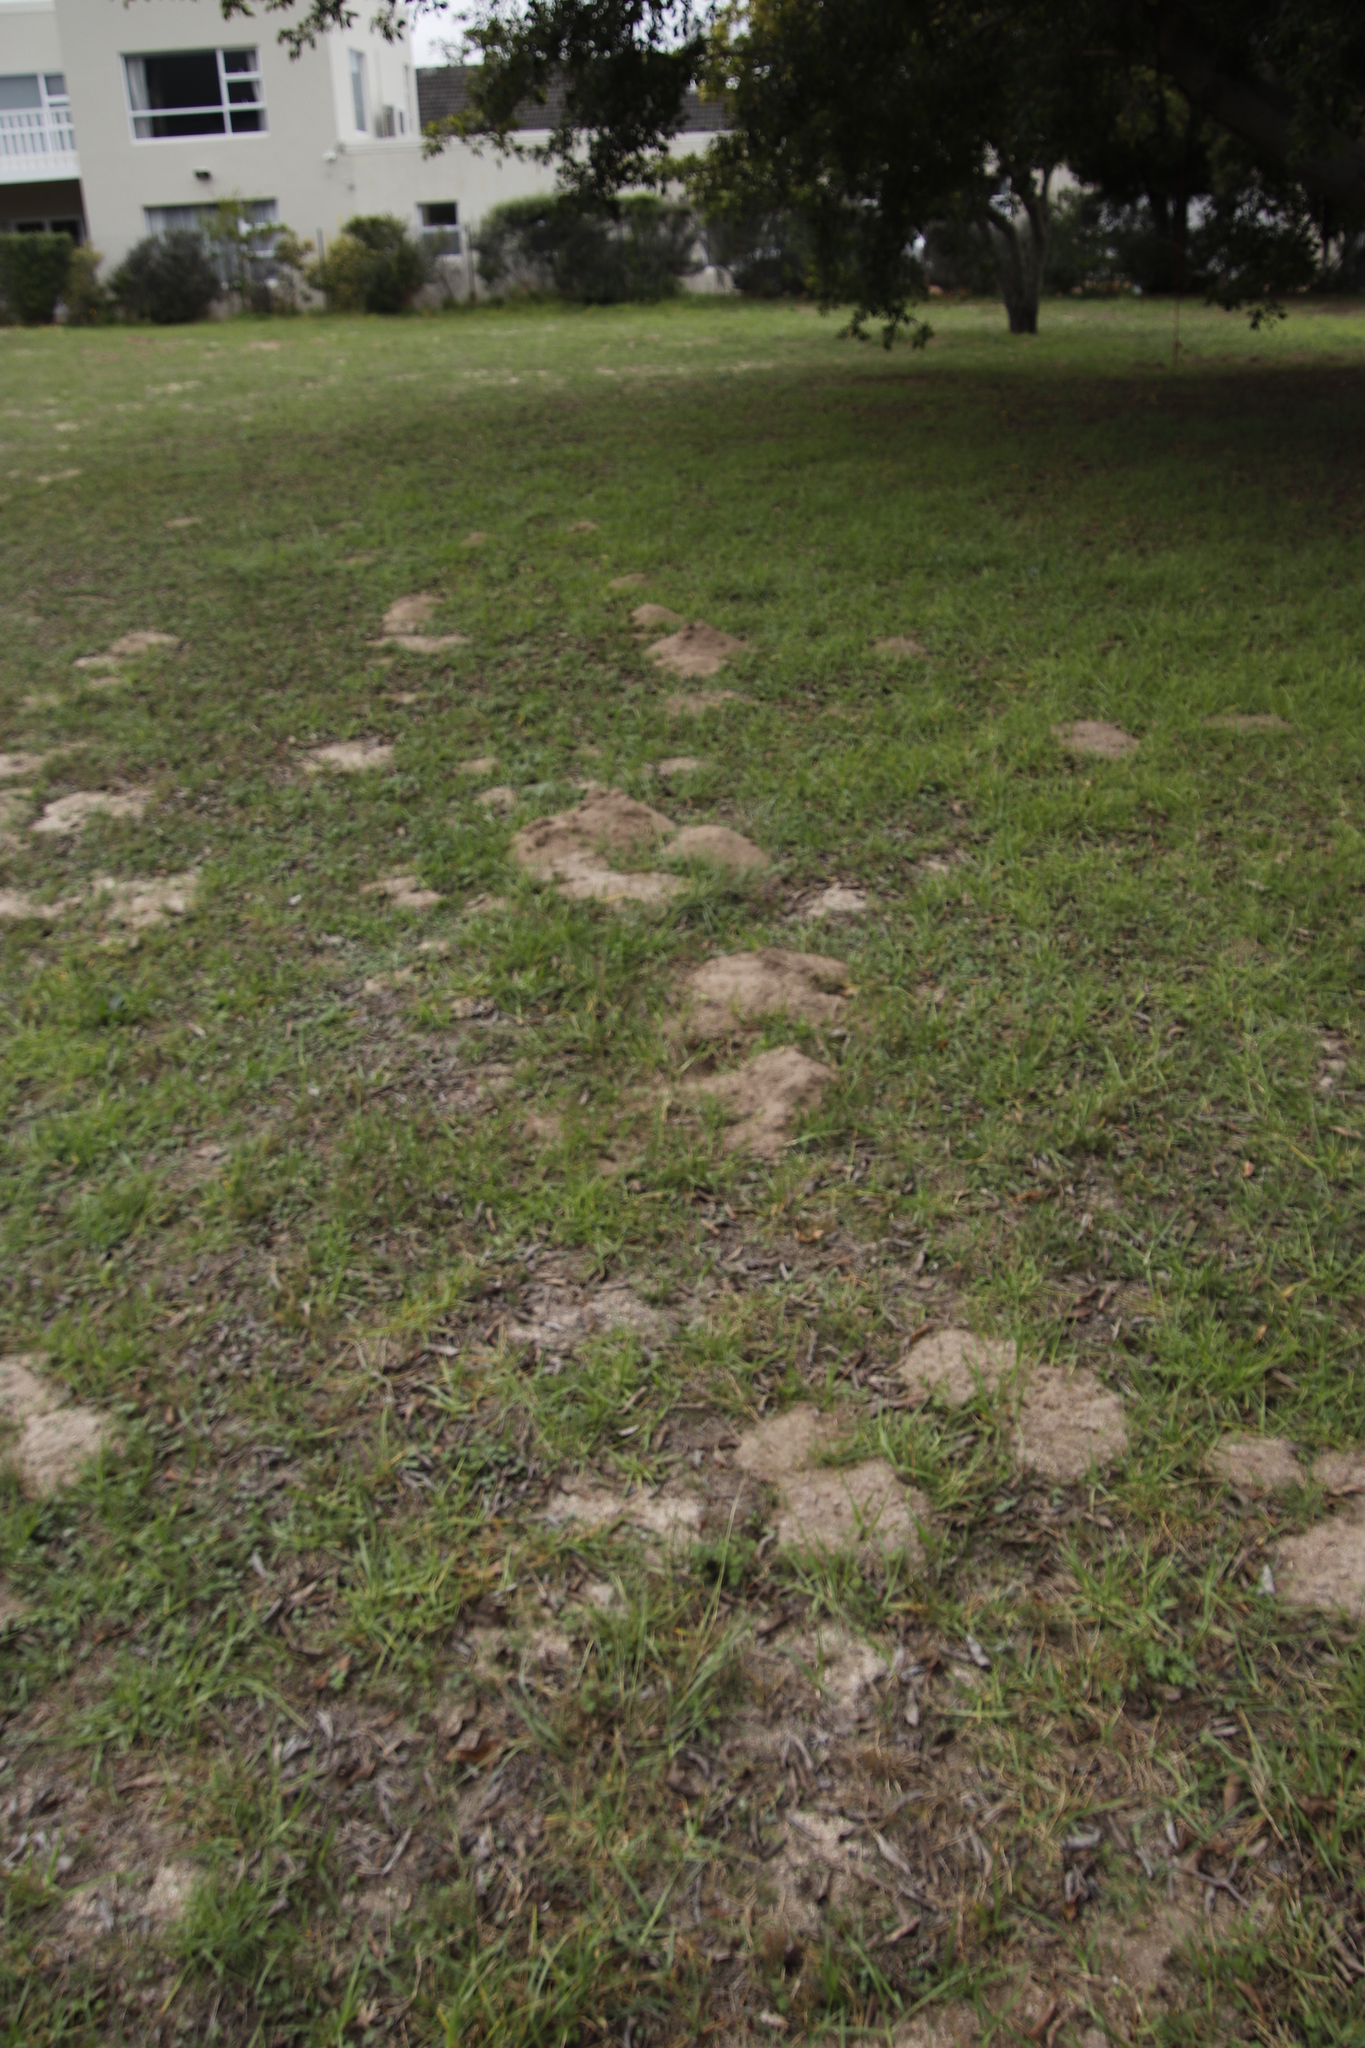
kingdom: Animalia
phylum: Chordata
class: Mammalia
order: Rodentia
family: Bathyergidae
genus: Georychus
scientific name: Georychus capensis
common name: Cape mole-rat
